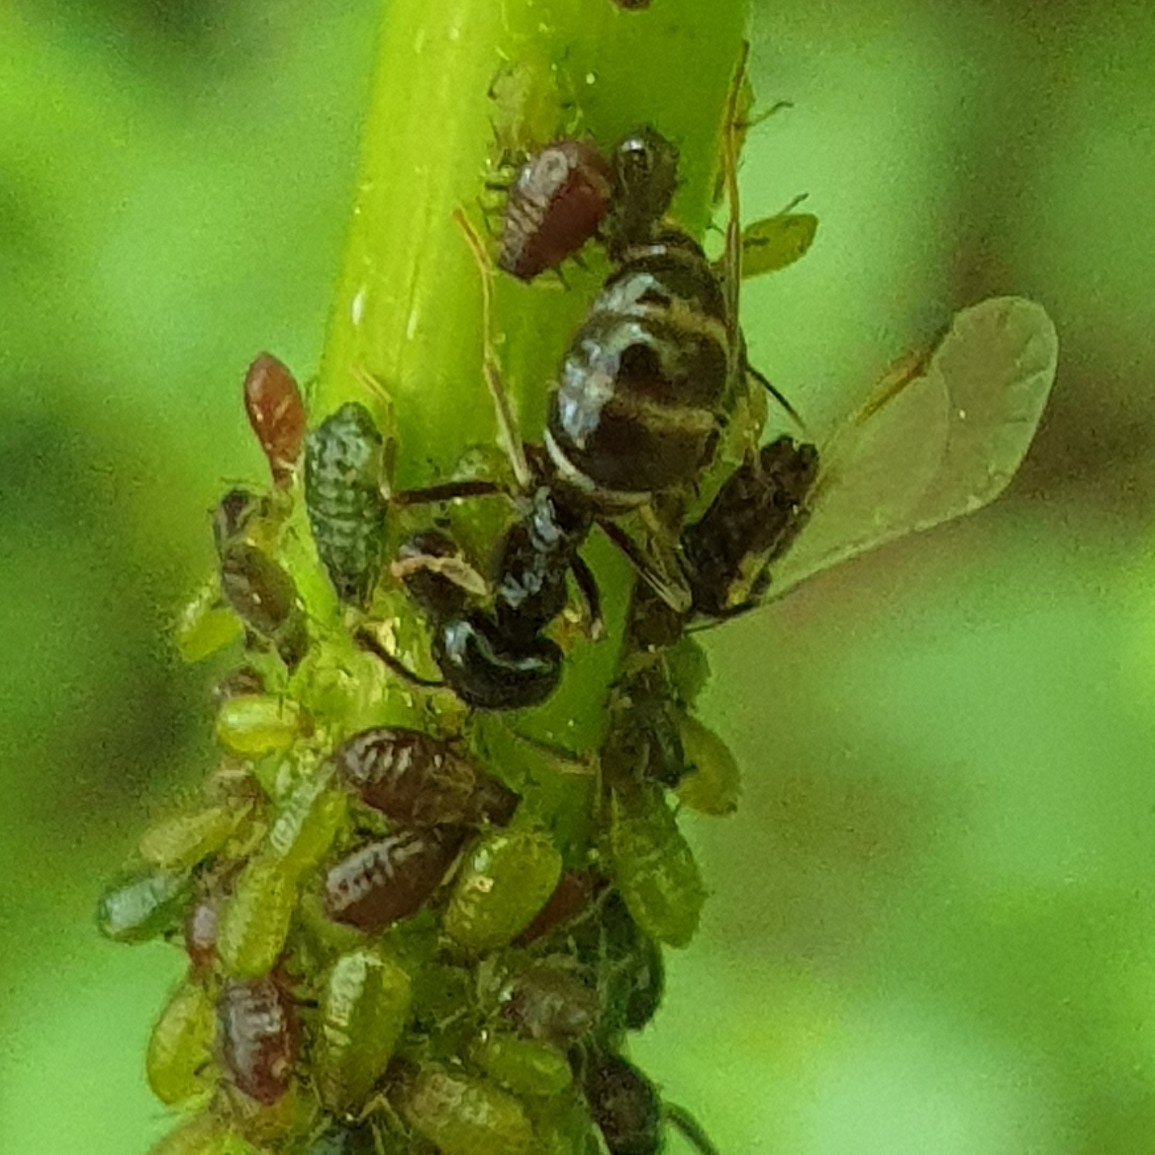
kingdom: Animalia
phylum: Arthropoda
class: Insecta
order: Hymenoptera
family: Formicidae
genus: Lasius
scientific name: Lasius fuliginosus
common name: Jet ant
